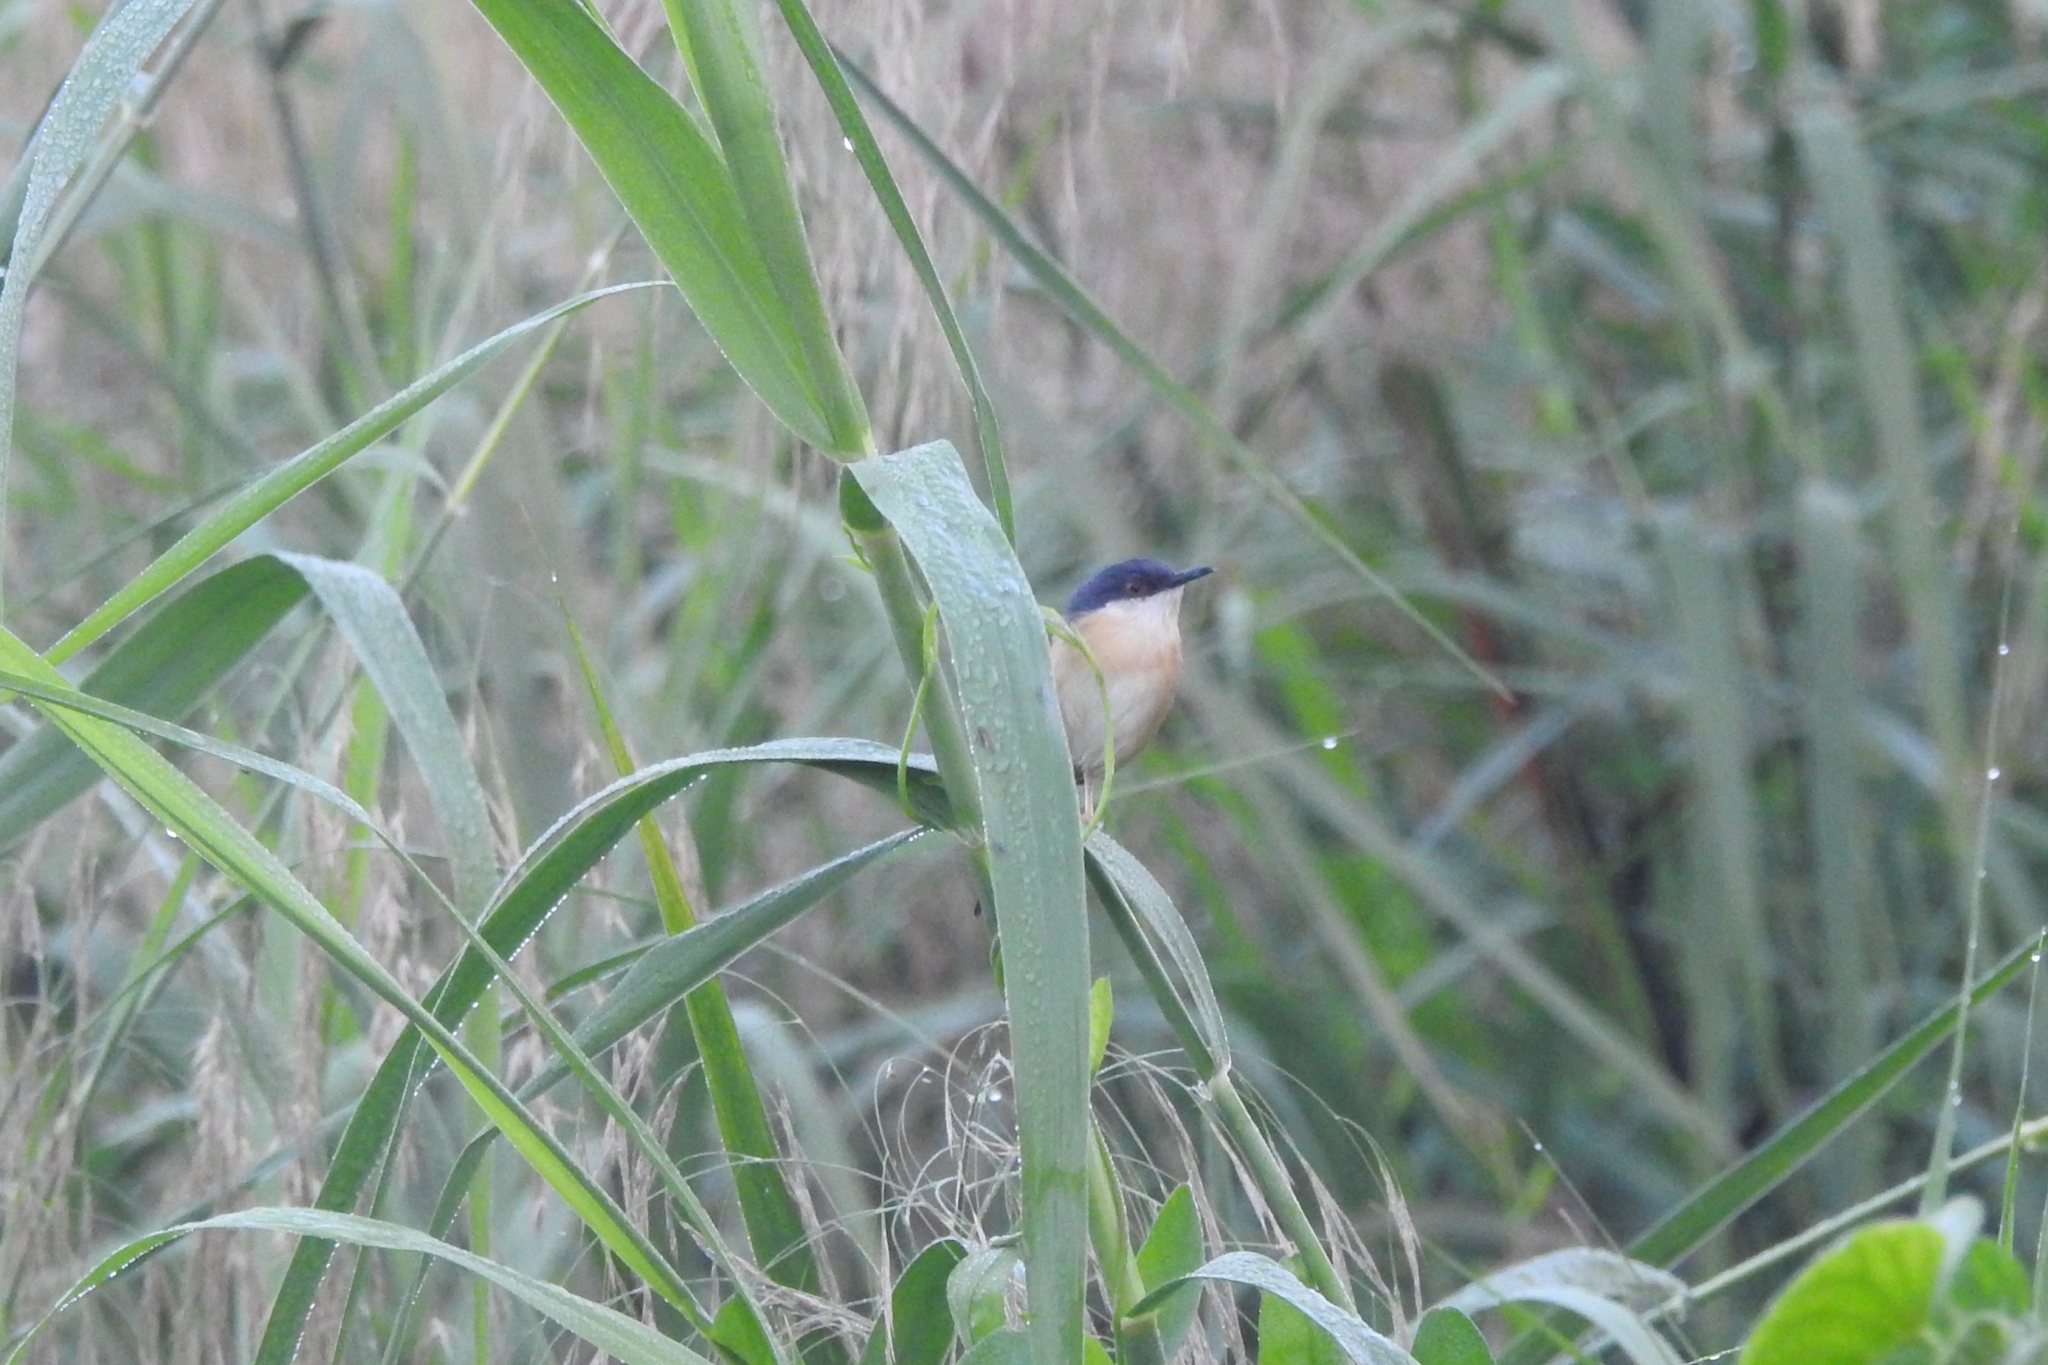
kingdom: Animalia
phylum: Chordata
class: Aves
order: Passeriformes
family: Cisticolidae
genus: Prinia
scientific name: Prinia socialis
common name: Ashy prinia
